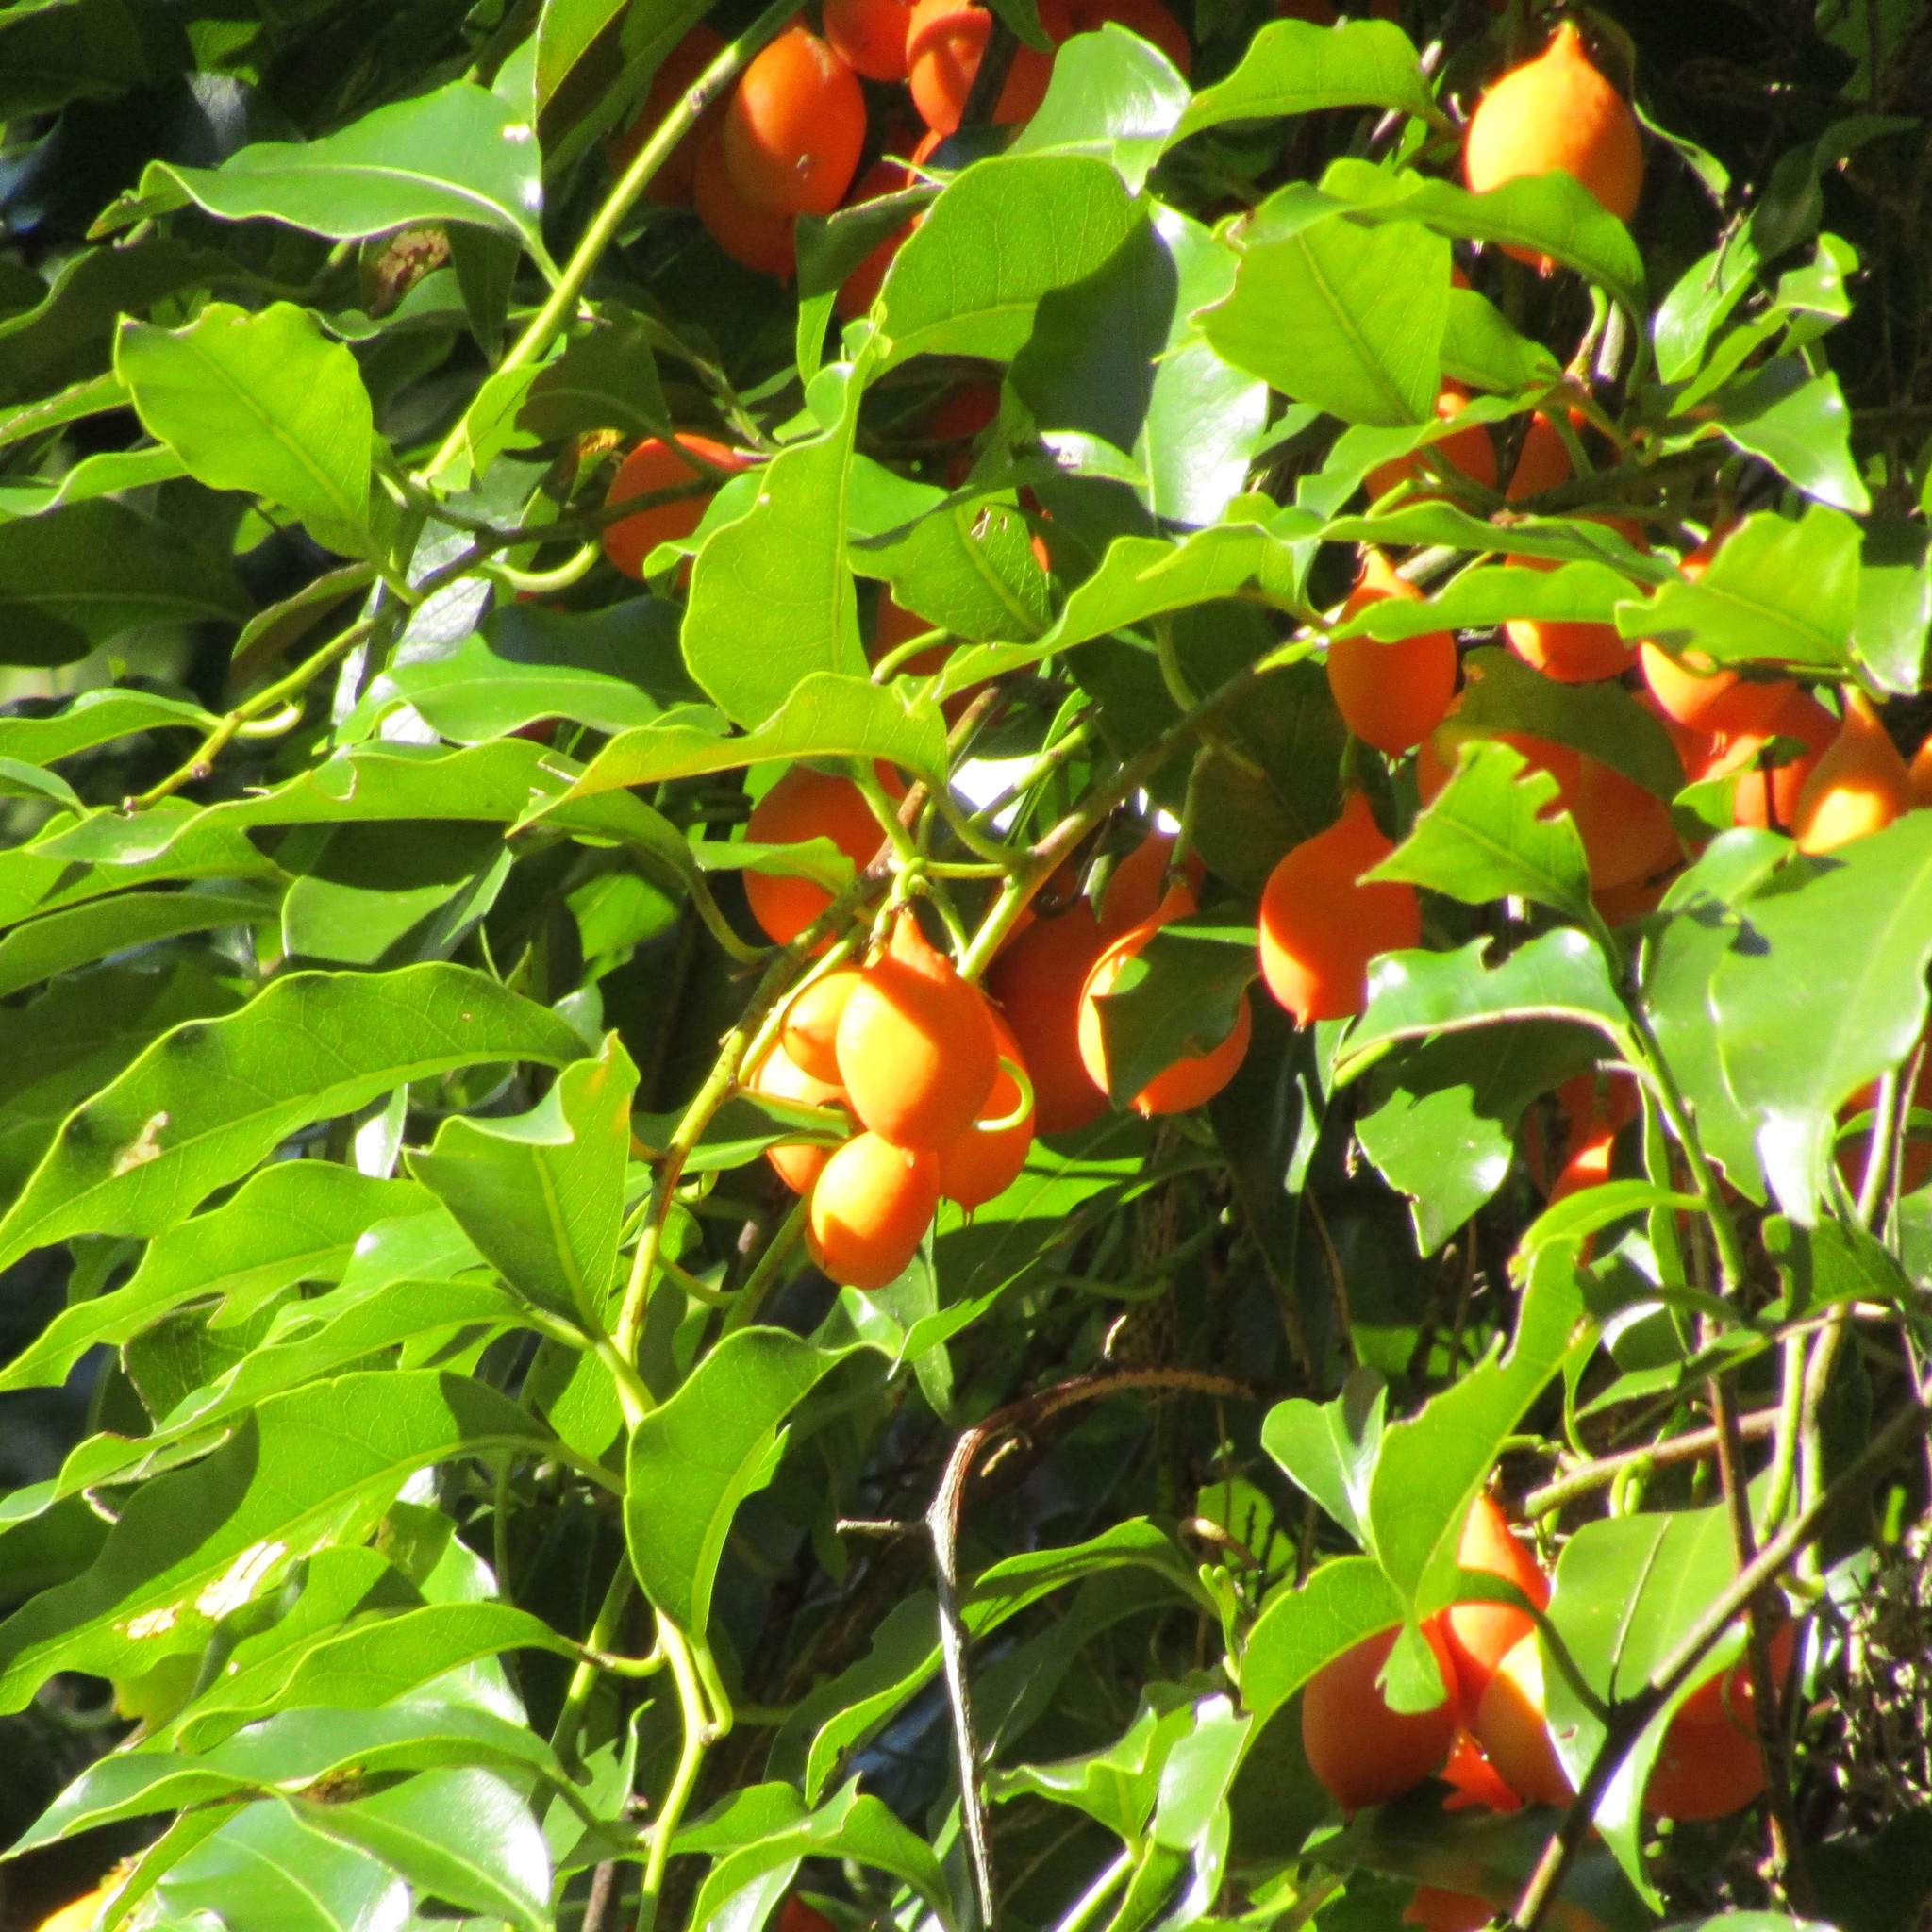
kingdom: Plantae
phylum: Tracheophyta
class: Magnoliopsida
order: Malpighiales
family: Passifloraceae
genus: Passiflora
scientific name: Passiflora tetrandra
